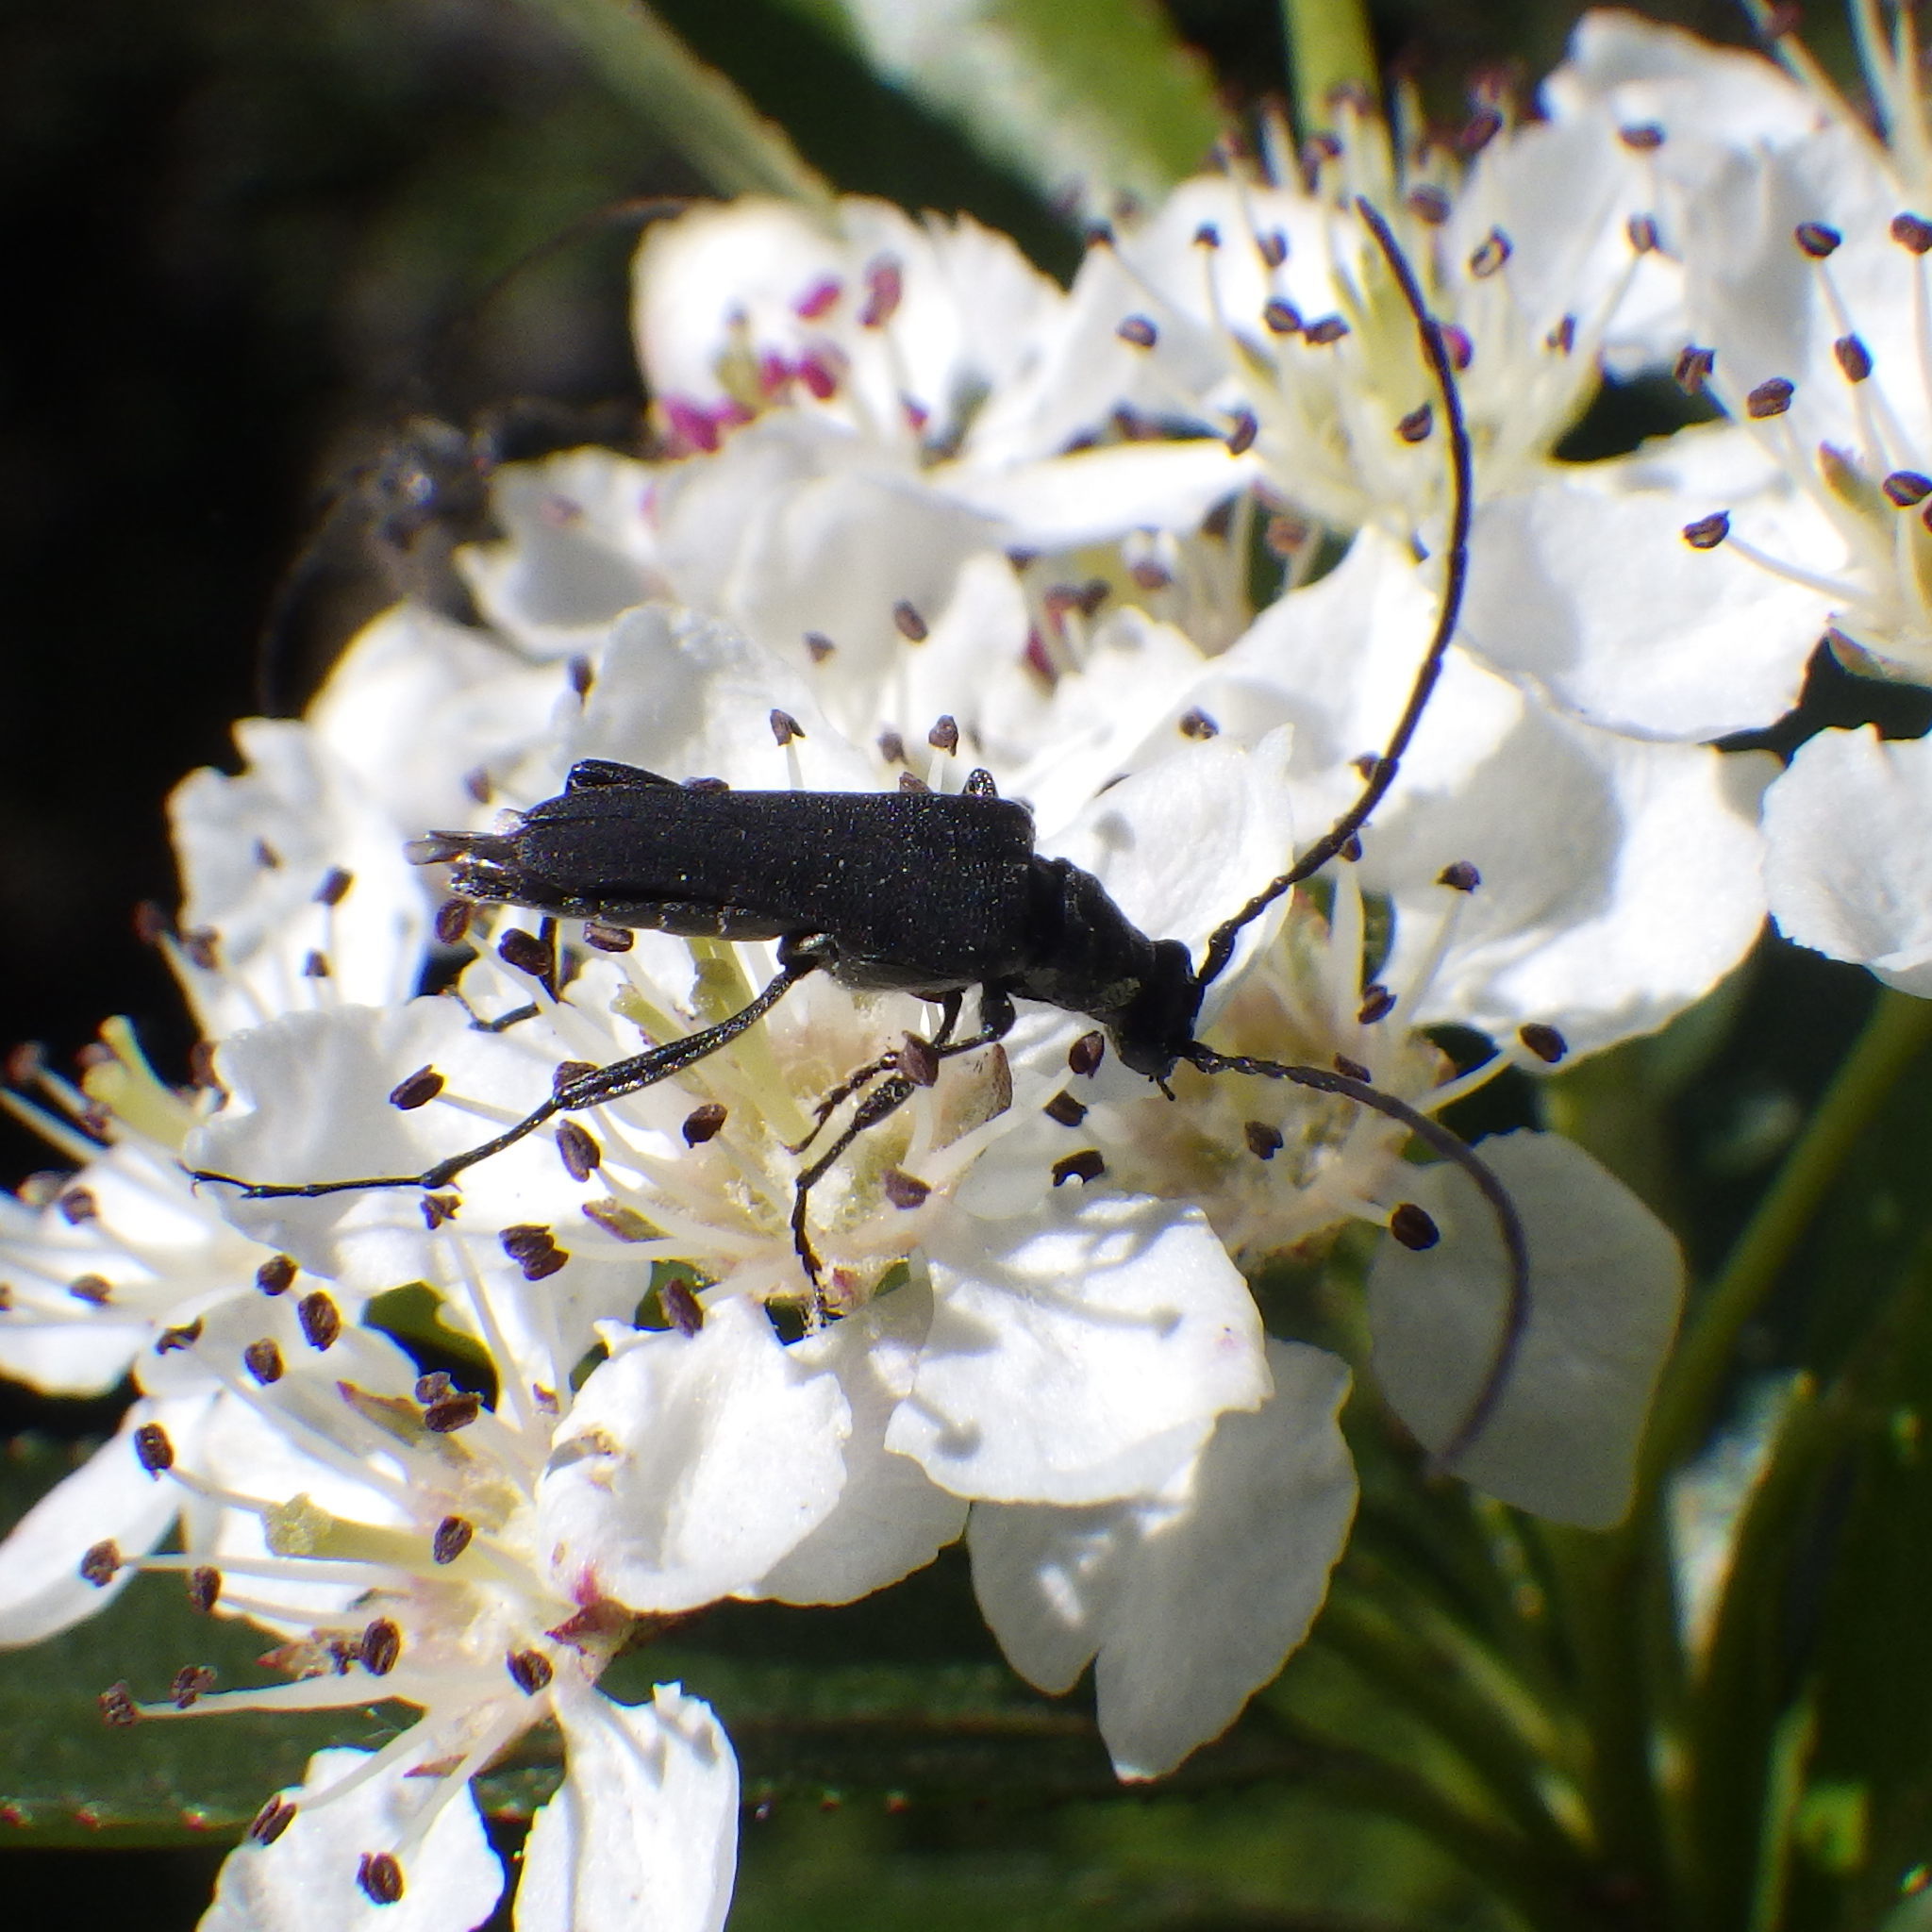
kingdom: Animalia
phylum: Arthropoda
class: Insecta
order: Coleoptera
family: Cerambycidae
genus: Trachysida
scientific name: Trachysida mutabilis
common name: Changeable flower longhorn
